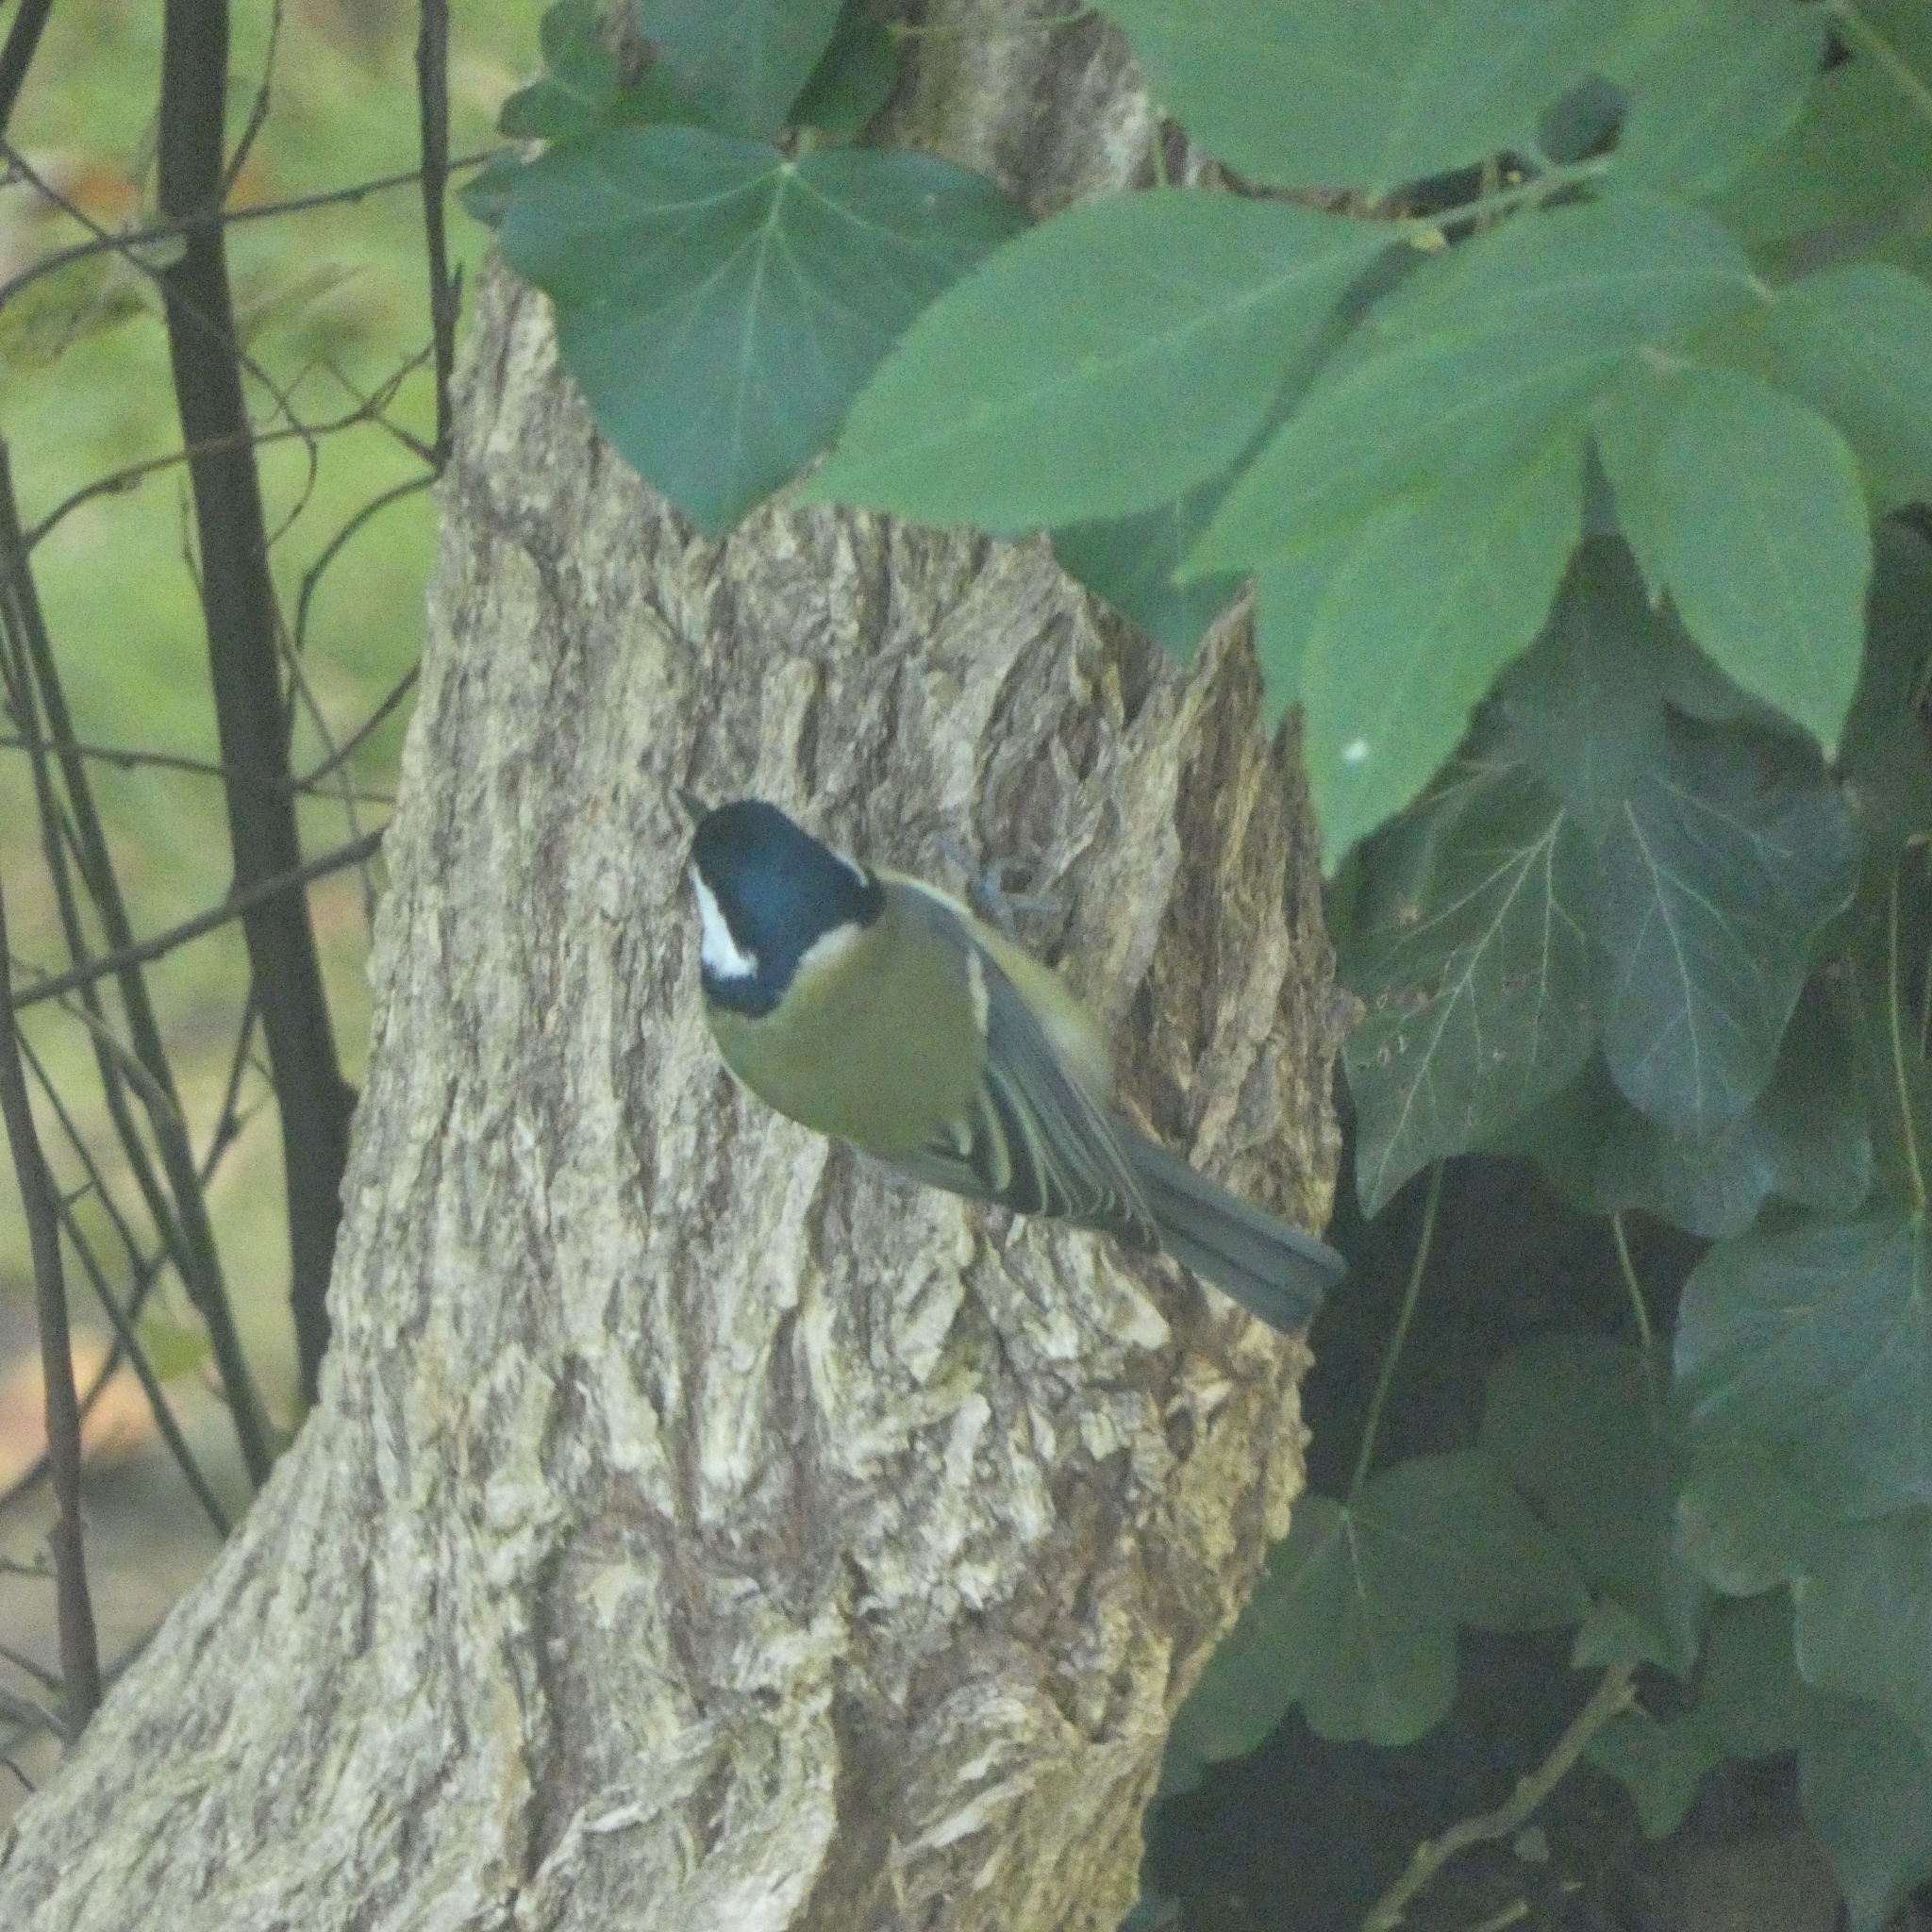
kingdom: Animalia
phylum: Chordata
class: Aves
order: Passeriformes
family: Paridae
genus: Parus
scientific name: Parus major
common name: Great tit
